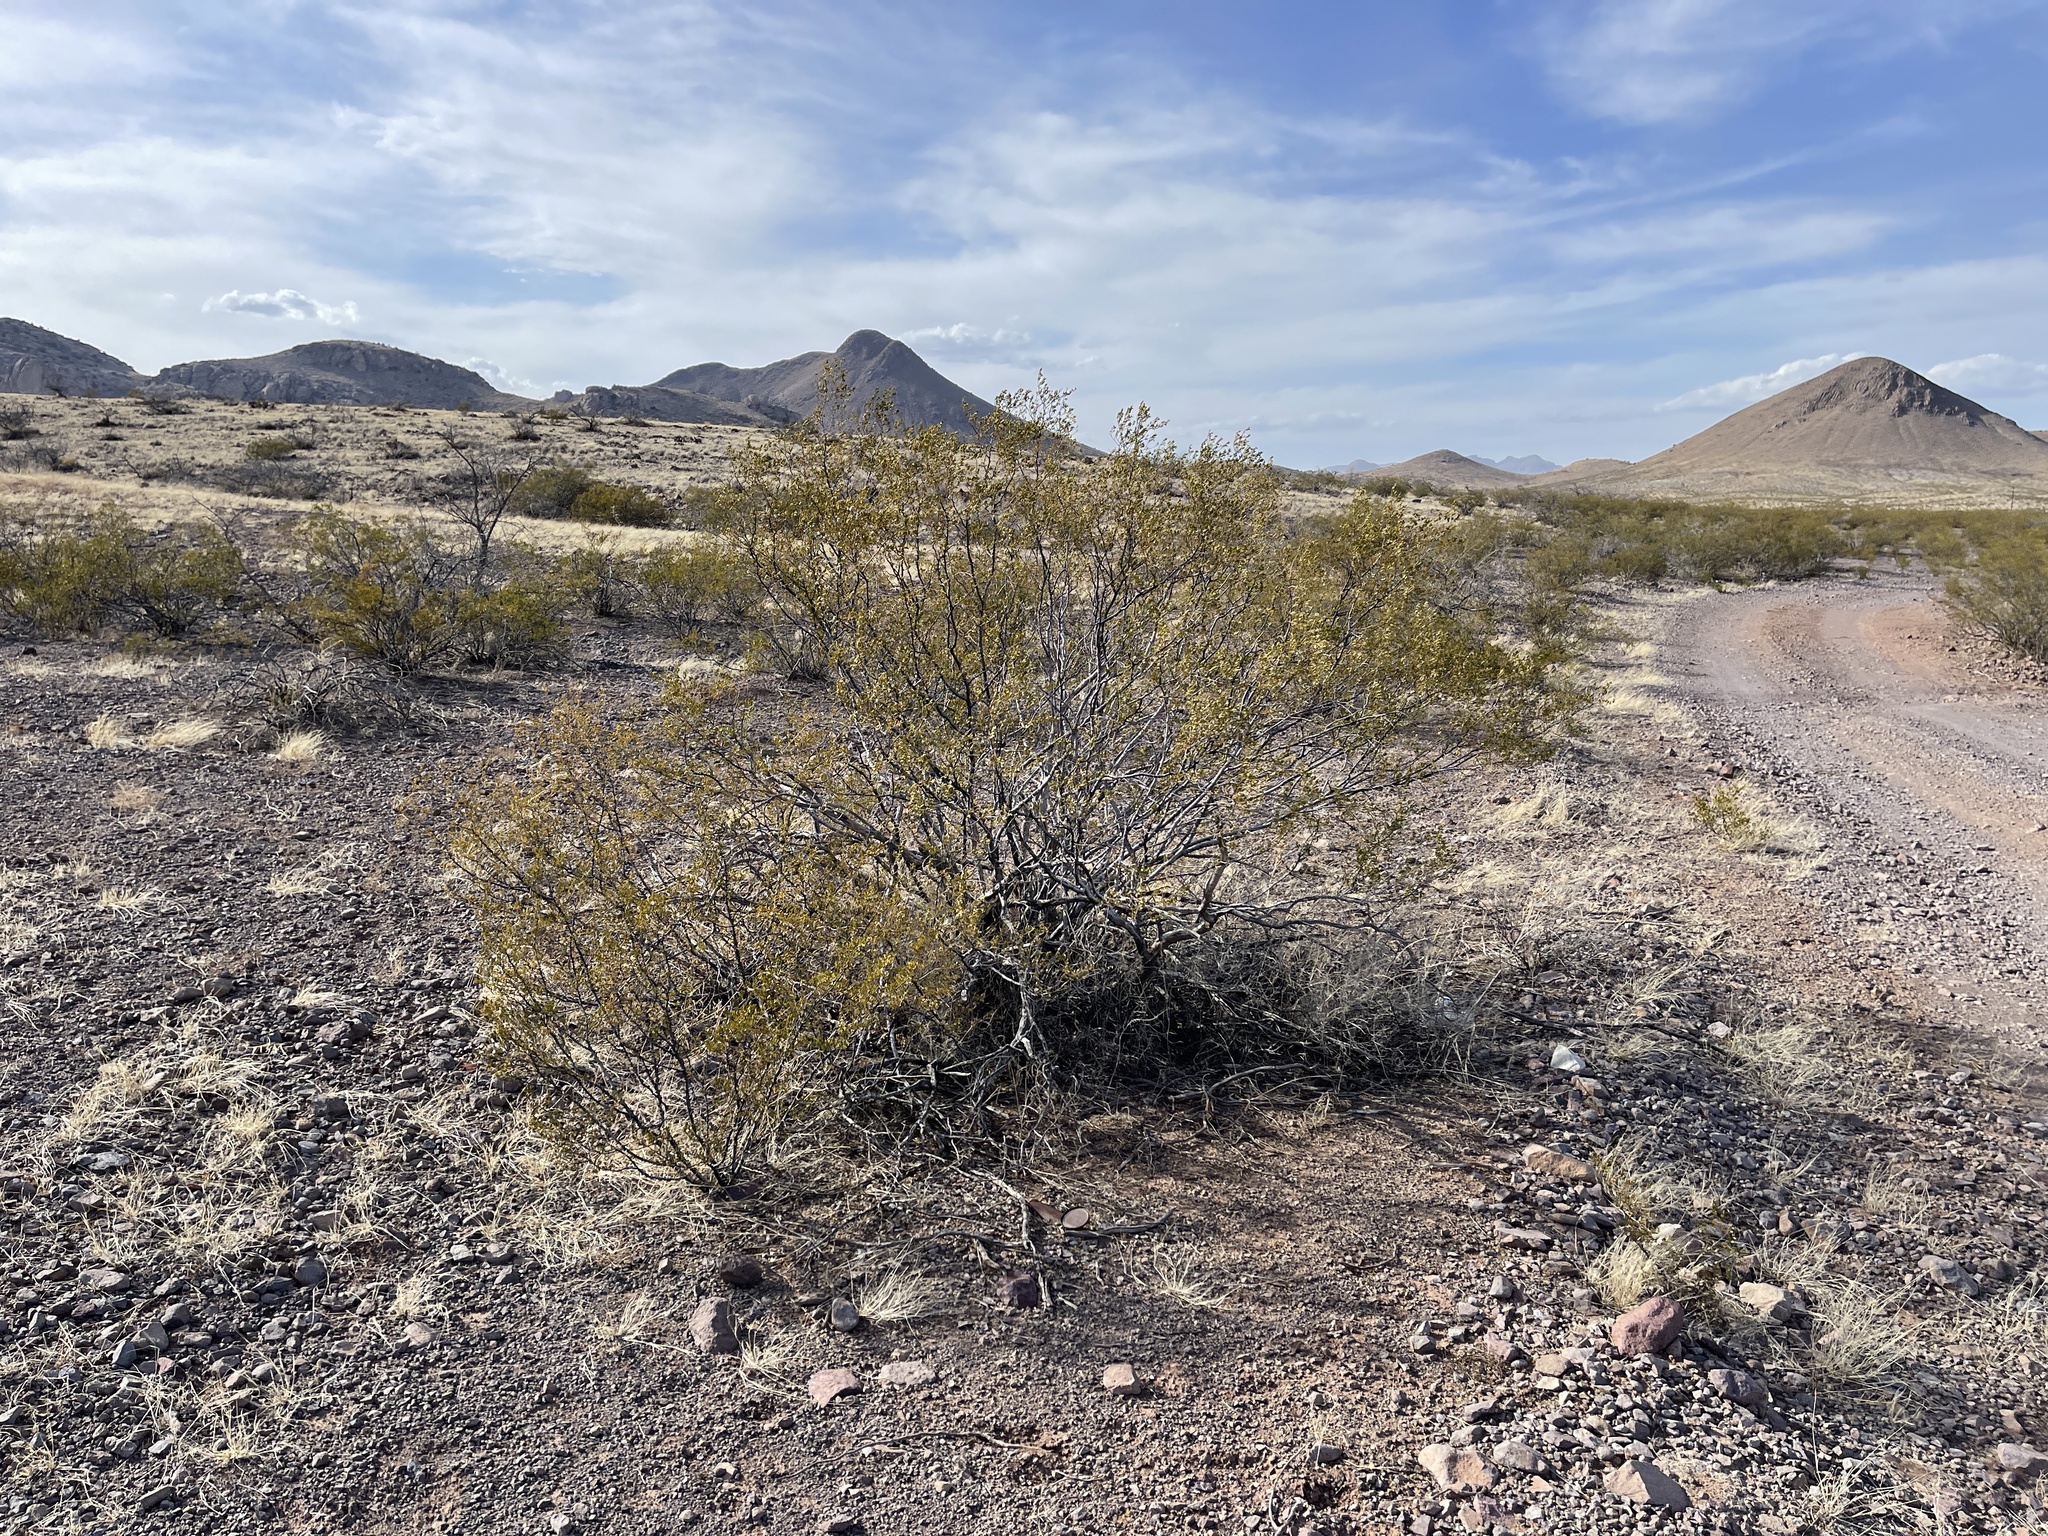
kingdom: Plantae
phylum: Tracheophyta
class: Magnoliopsida
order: Zygophyllales
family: Zygophyllaceae
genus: Larrea
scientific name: Larrea tridentata
